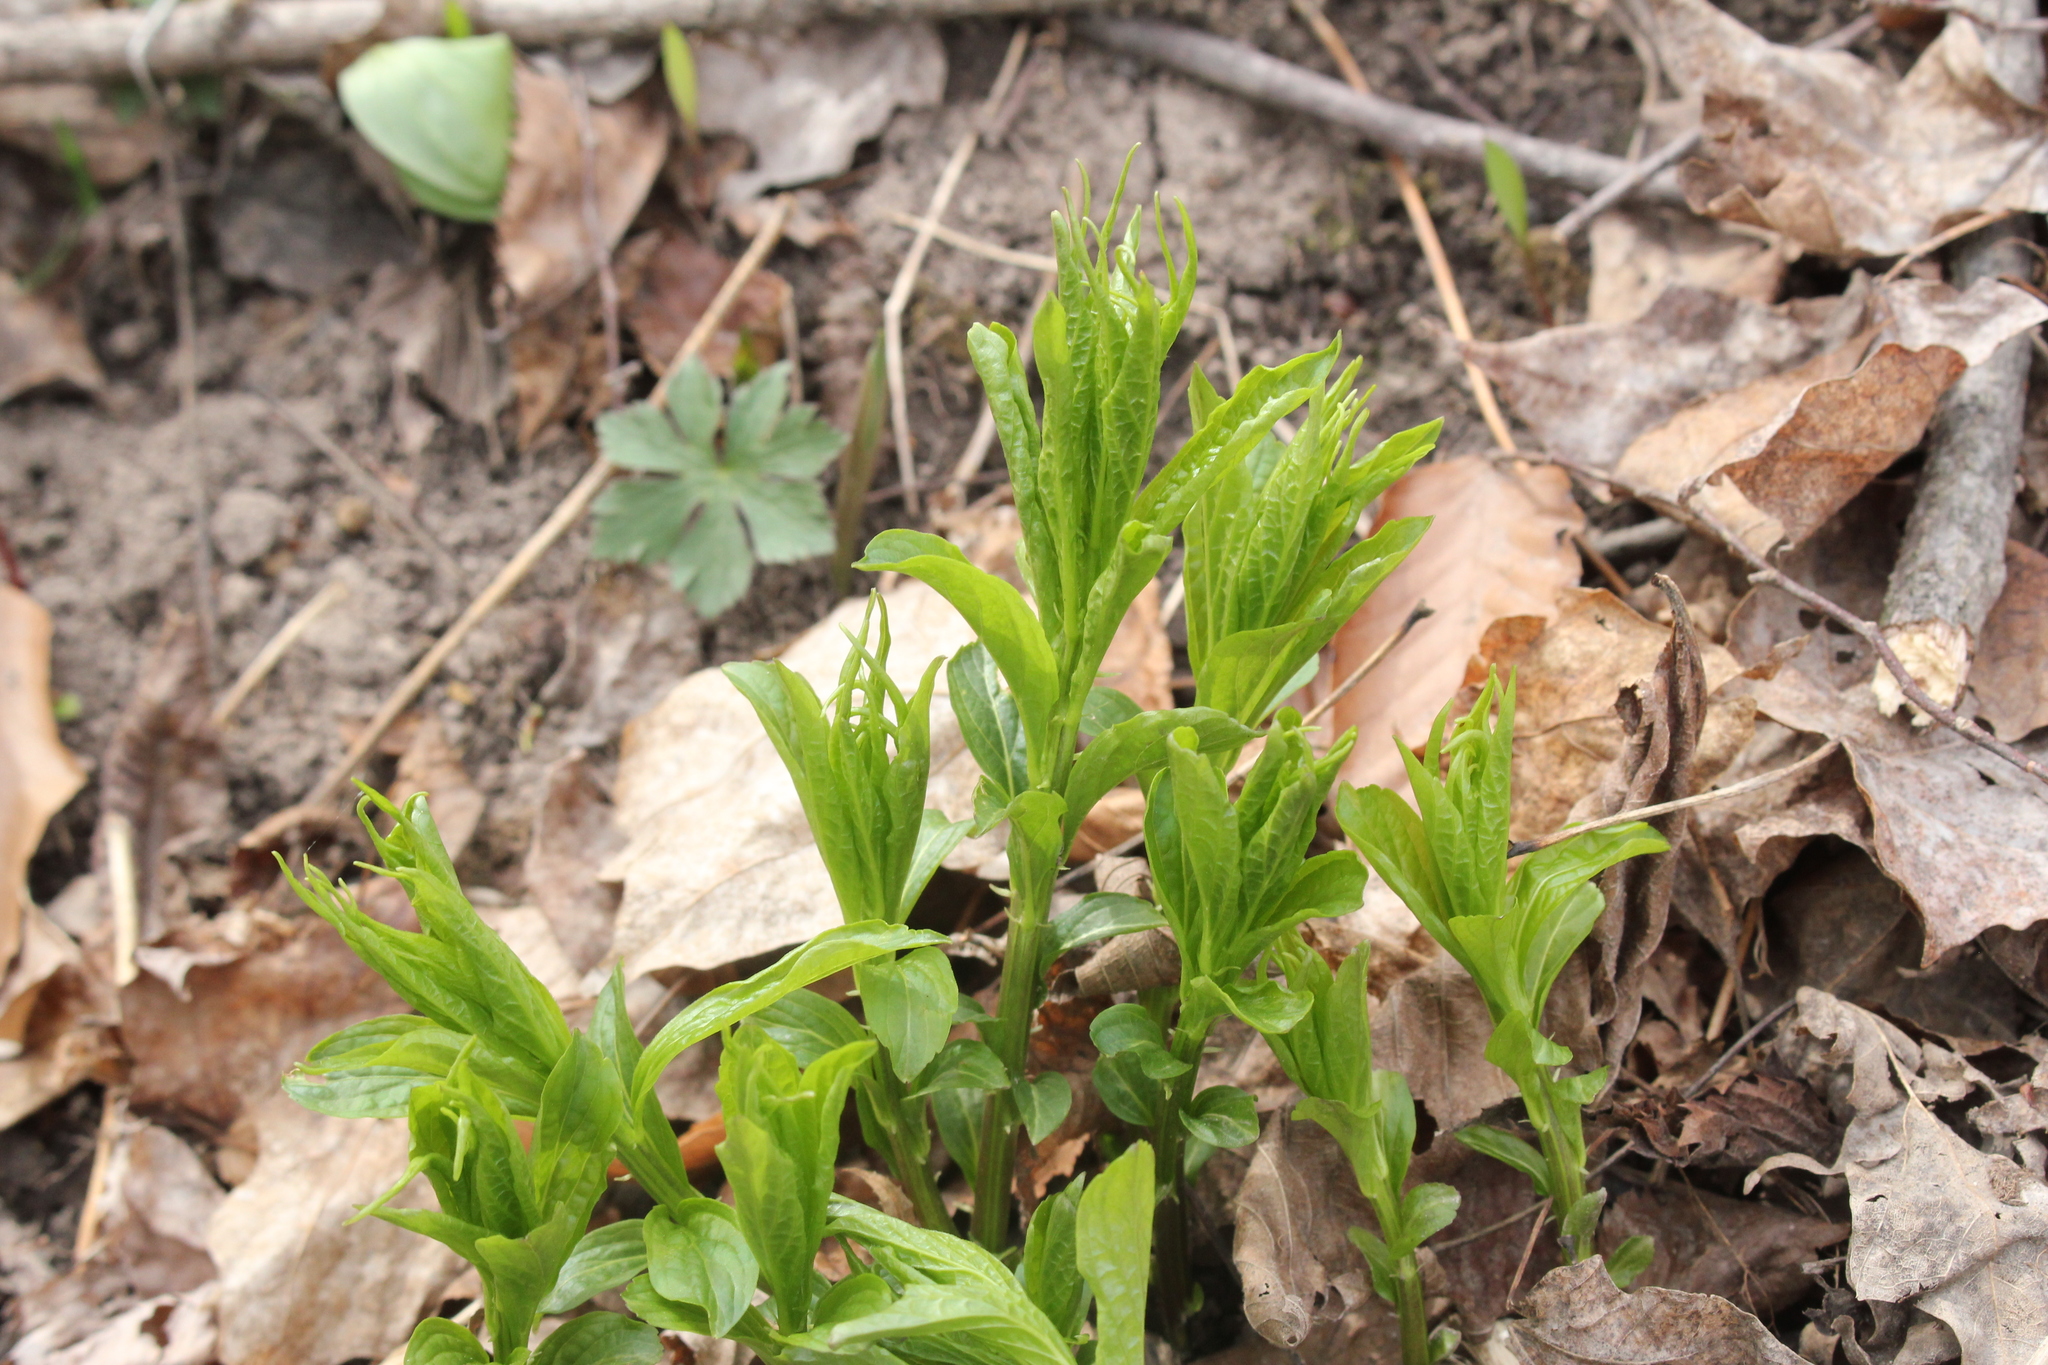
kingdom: Plantae
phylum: Tracheophyta
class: Magnoliopsida
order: Malpighiales
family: Violaceae
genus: Cubelium
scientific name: Cubelium concolor
